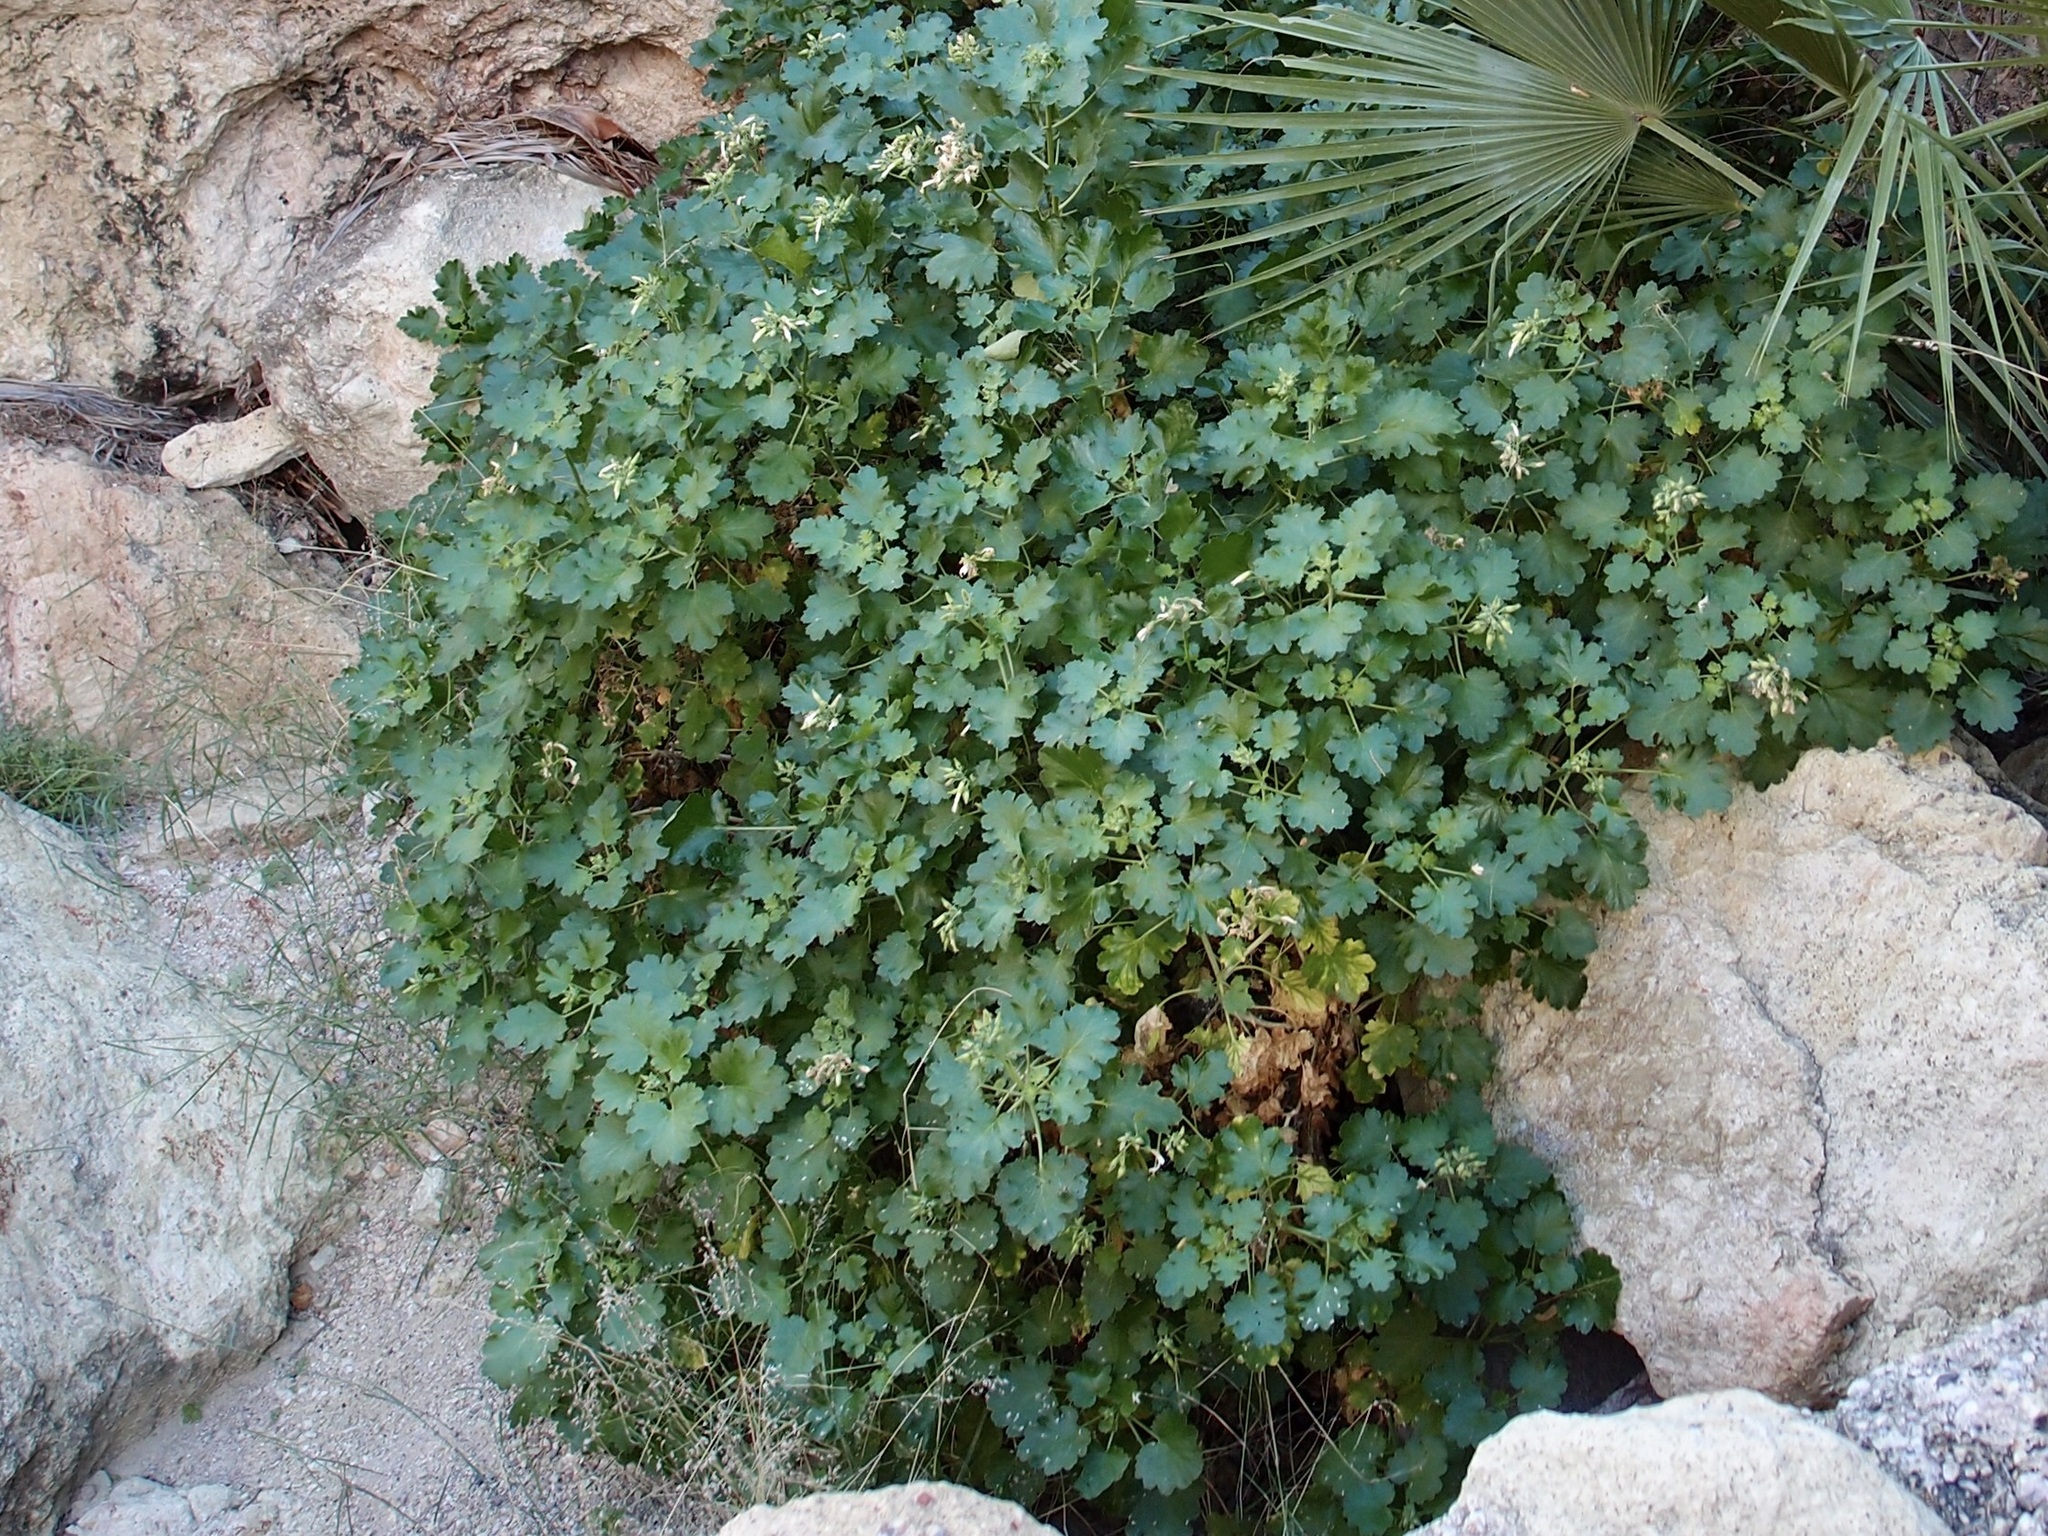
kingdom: Plantae
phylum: Tracheophyta
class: Magnoliopsida
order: Cornales
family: Loasaceae
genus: Eucnide
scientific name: Eucnide cordata
